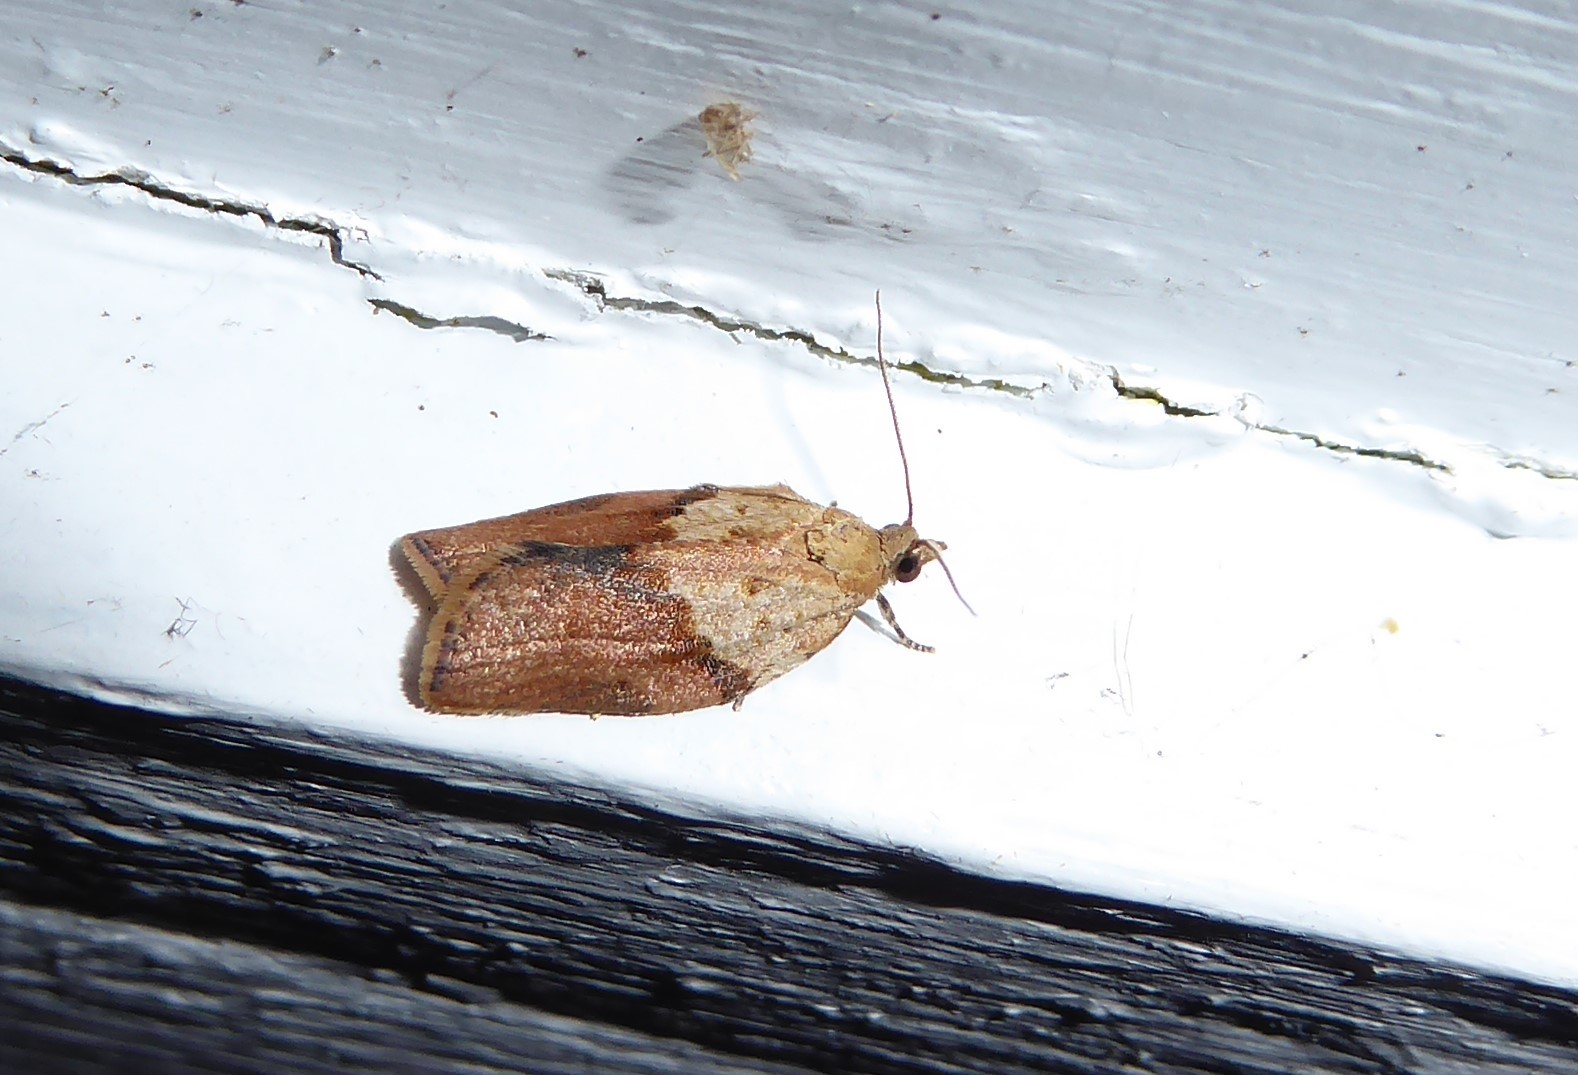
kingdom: Animalia
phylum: Arthropoda
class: Insecta
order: Lepidoptera
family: Tortricidae
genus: Epiphyas
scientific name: Epiphyas postvittana
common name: Light brown apple moth
